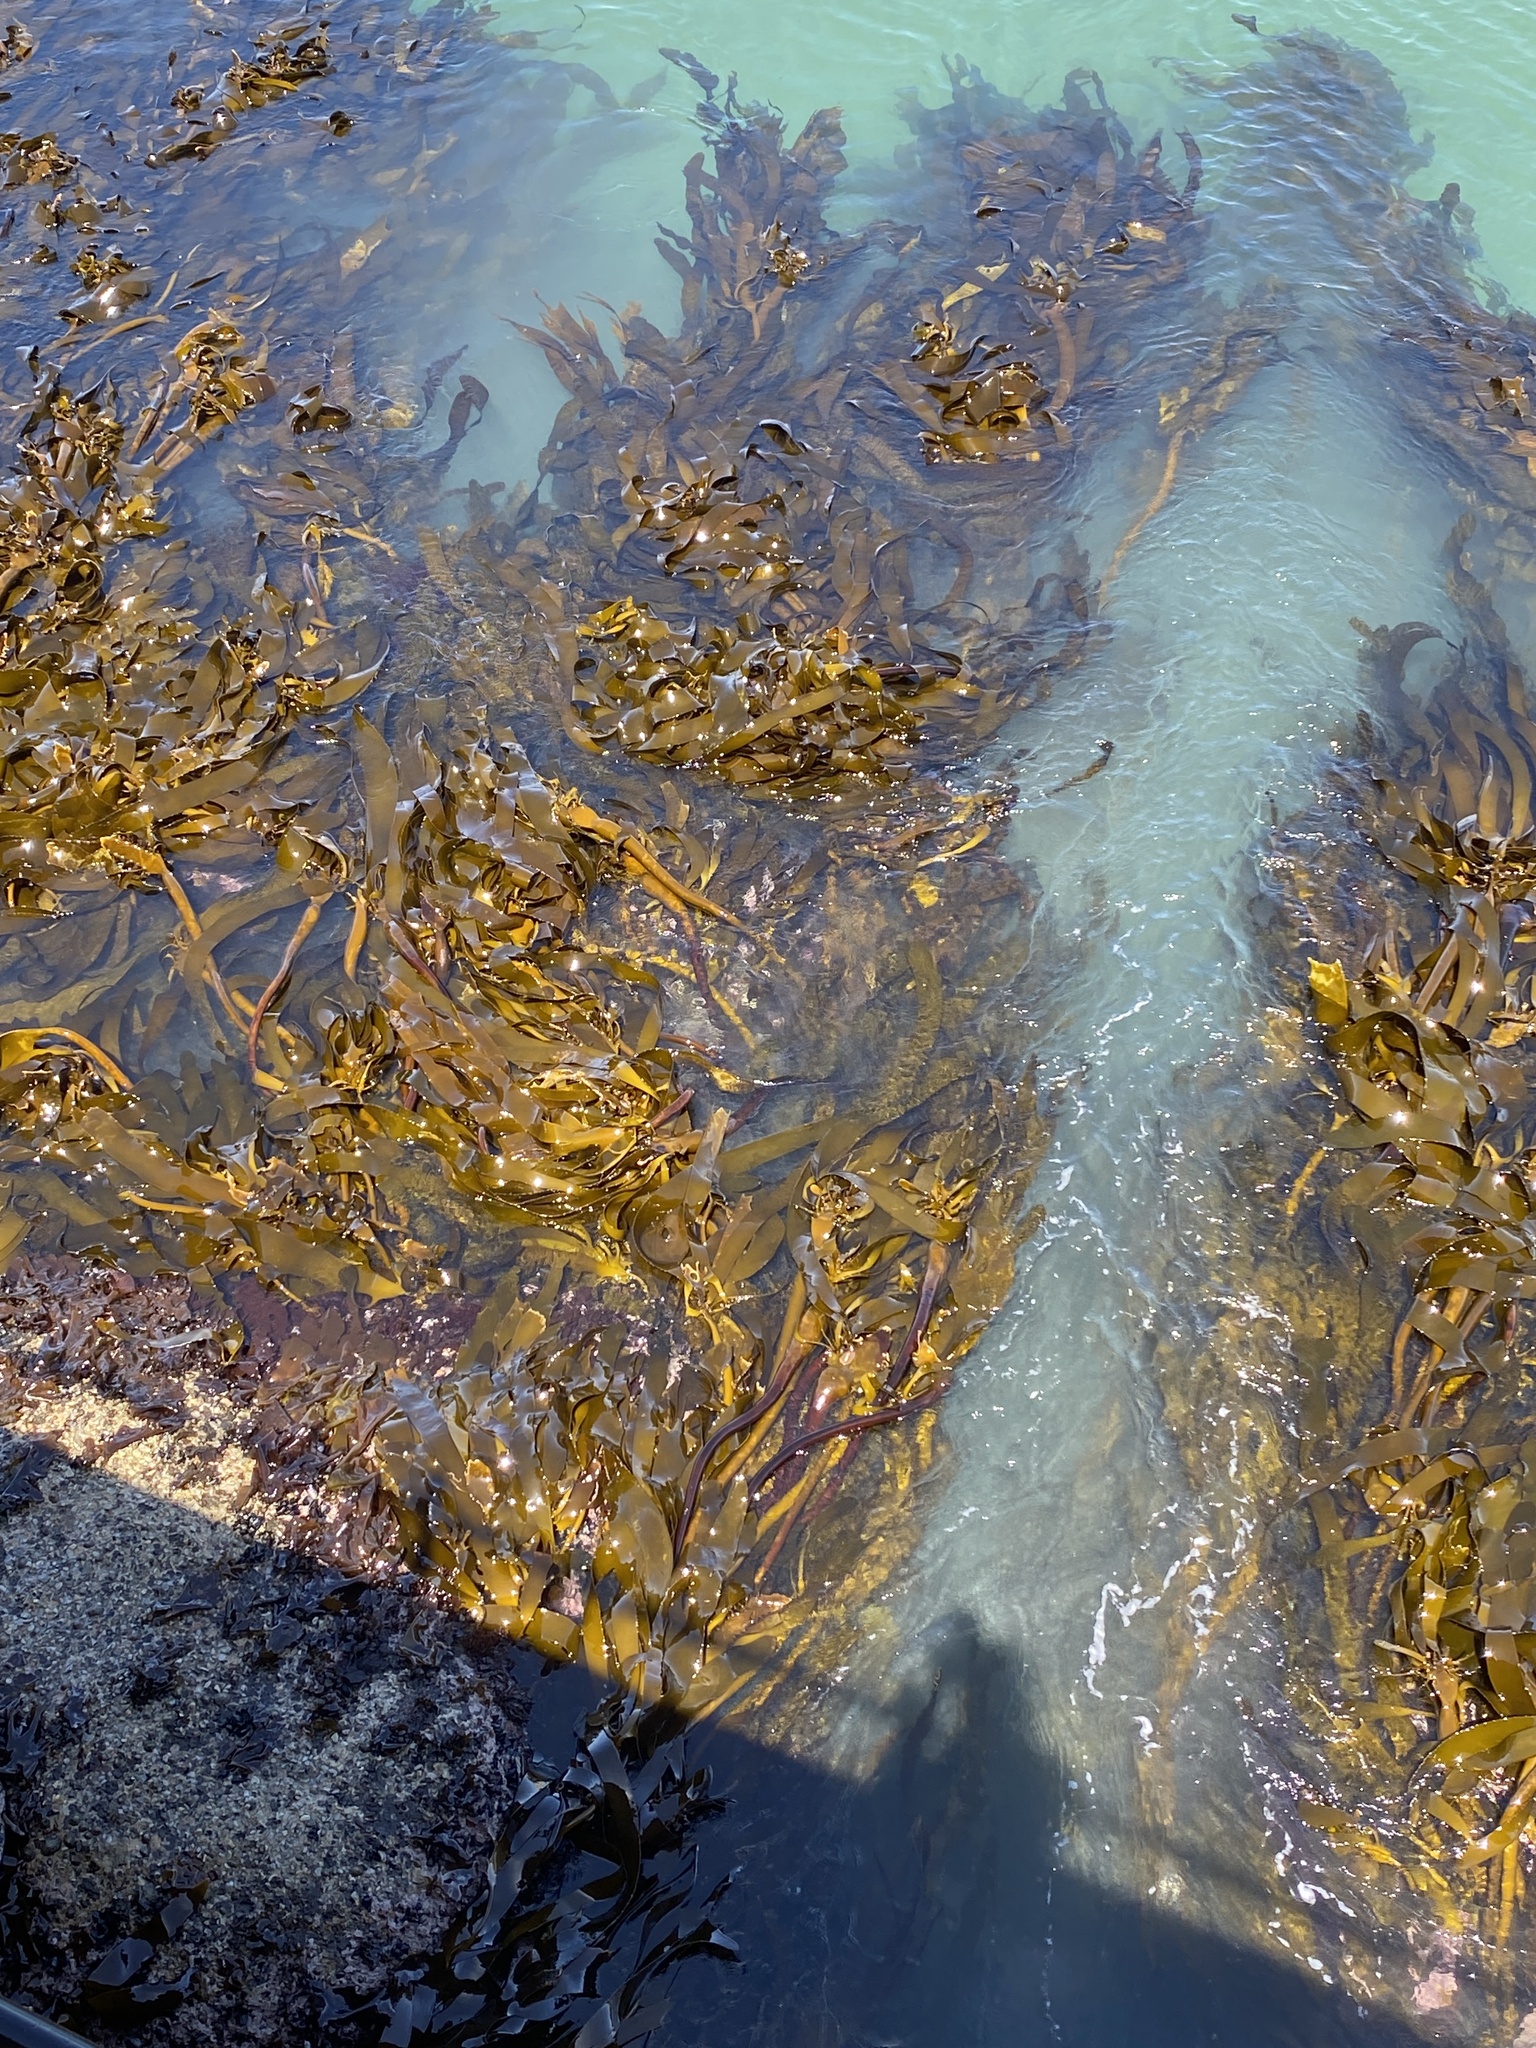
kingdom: Chromista
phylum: Ochrophyta
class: Phaeophyceae
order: Laminariales
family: Lessoniaceae
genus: Ecklonia
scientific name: Ecklonia
